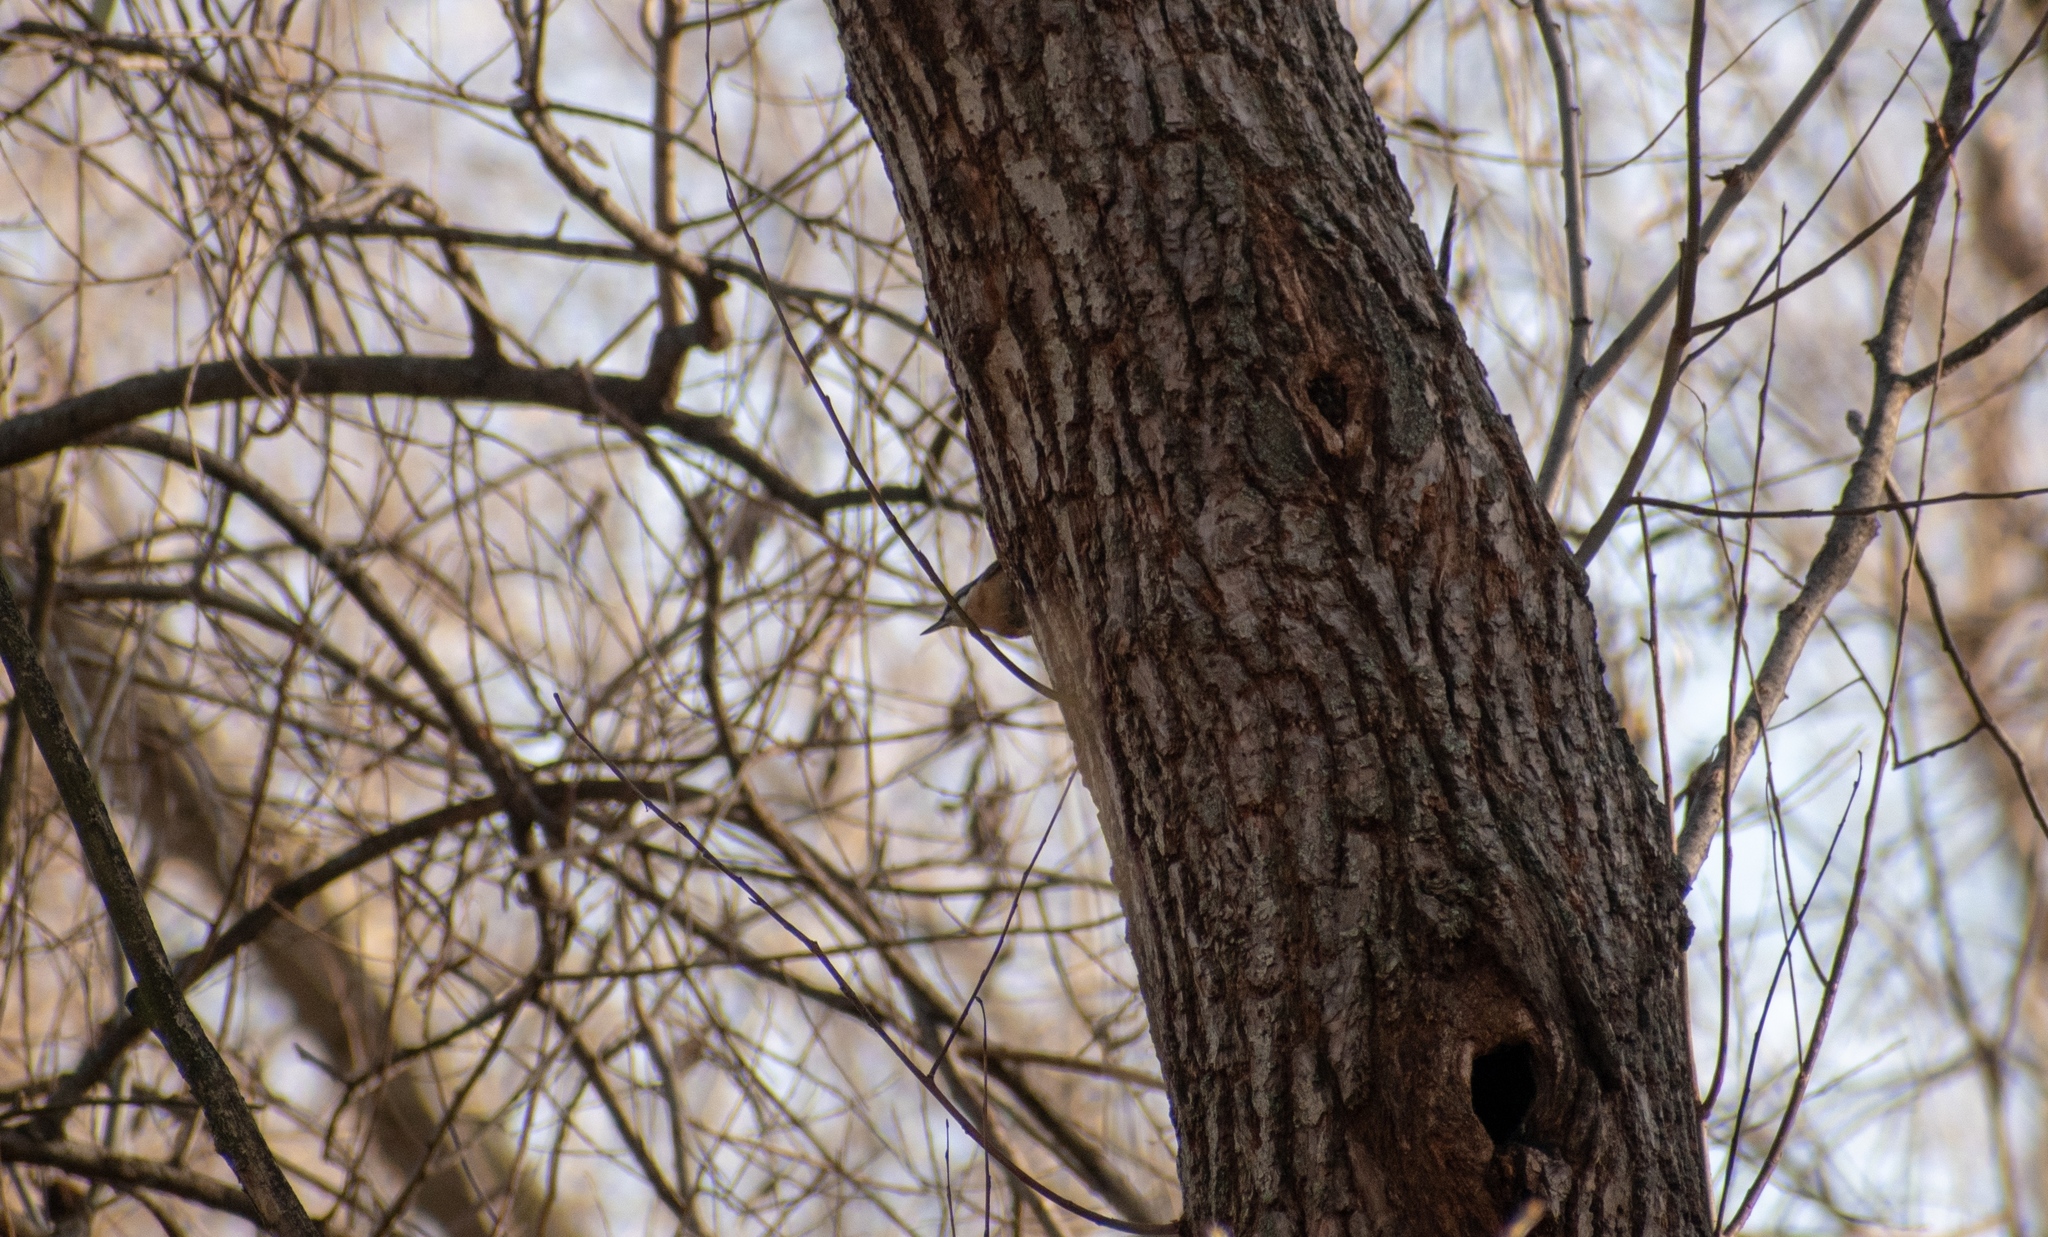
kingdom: Animalia
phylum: Chordata
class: Aves
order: Passeriformes
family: Sittidae
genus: Sitta
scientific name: Sitta europaea
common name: Eurasian nuthatch
